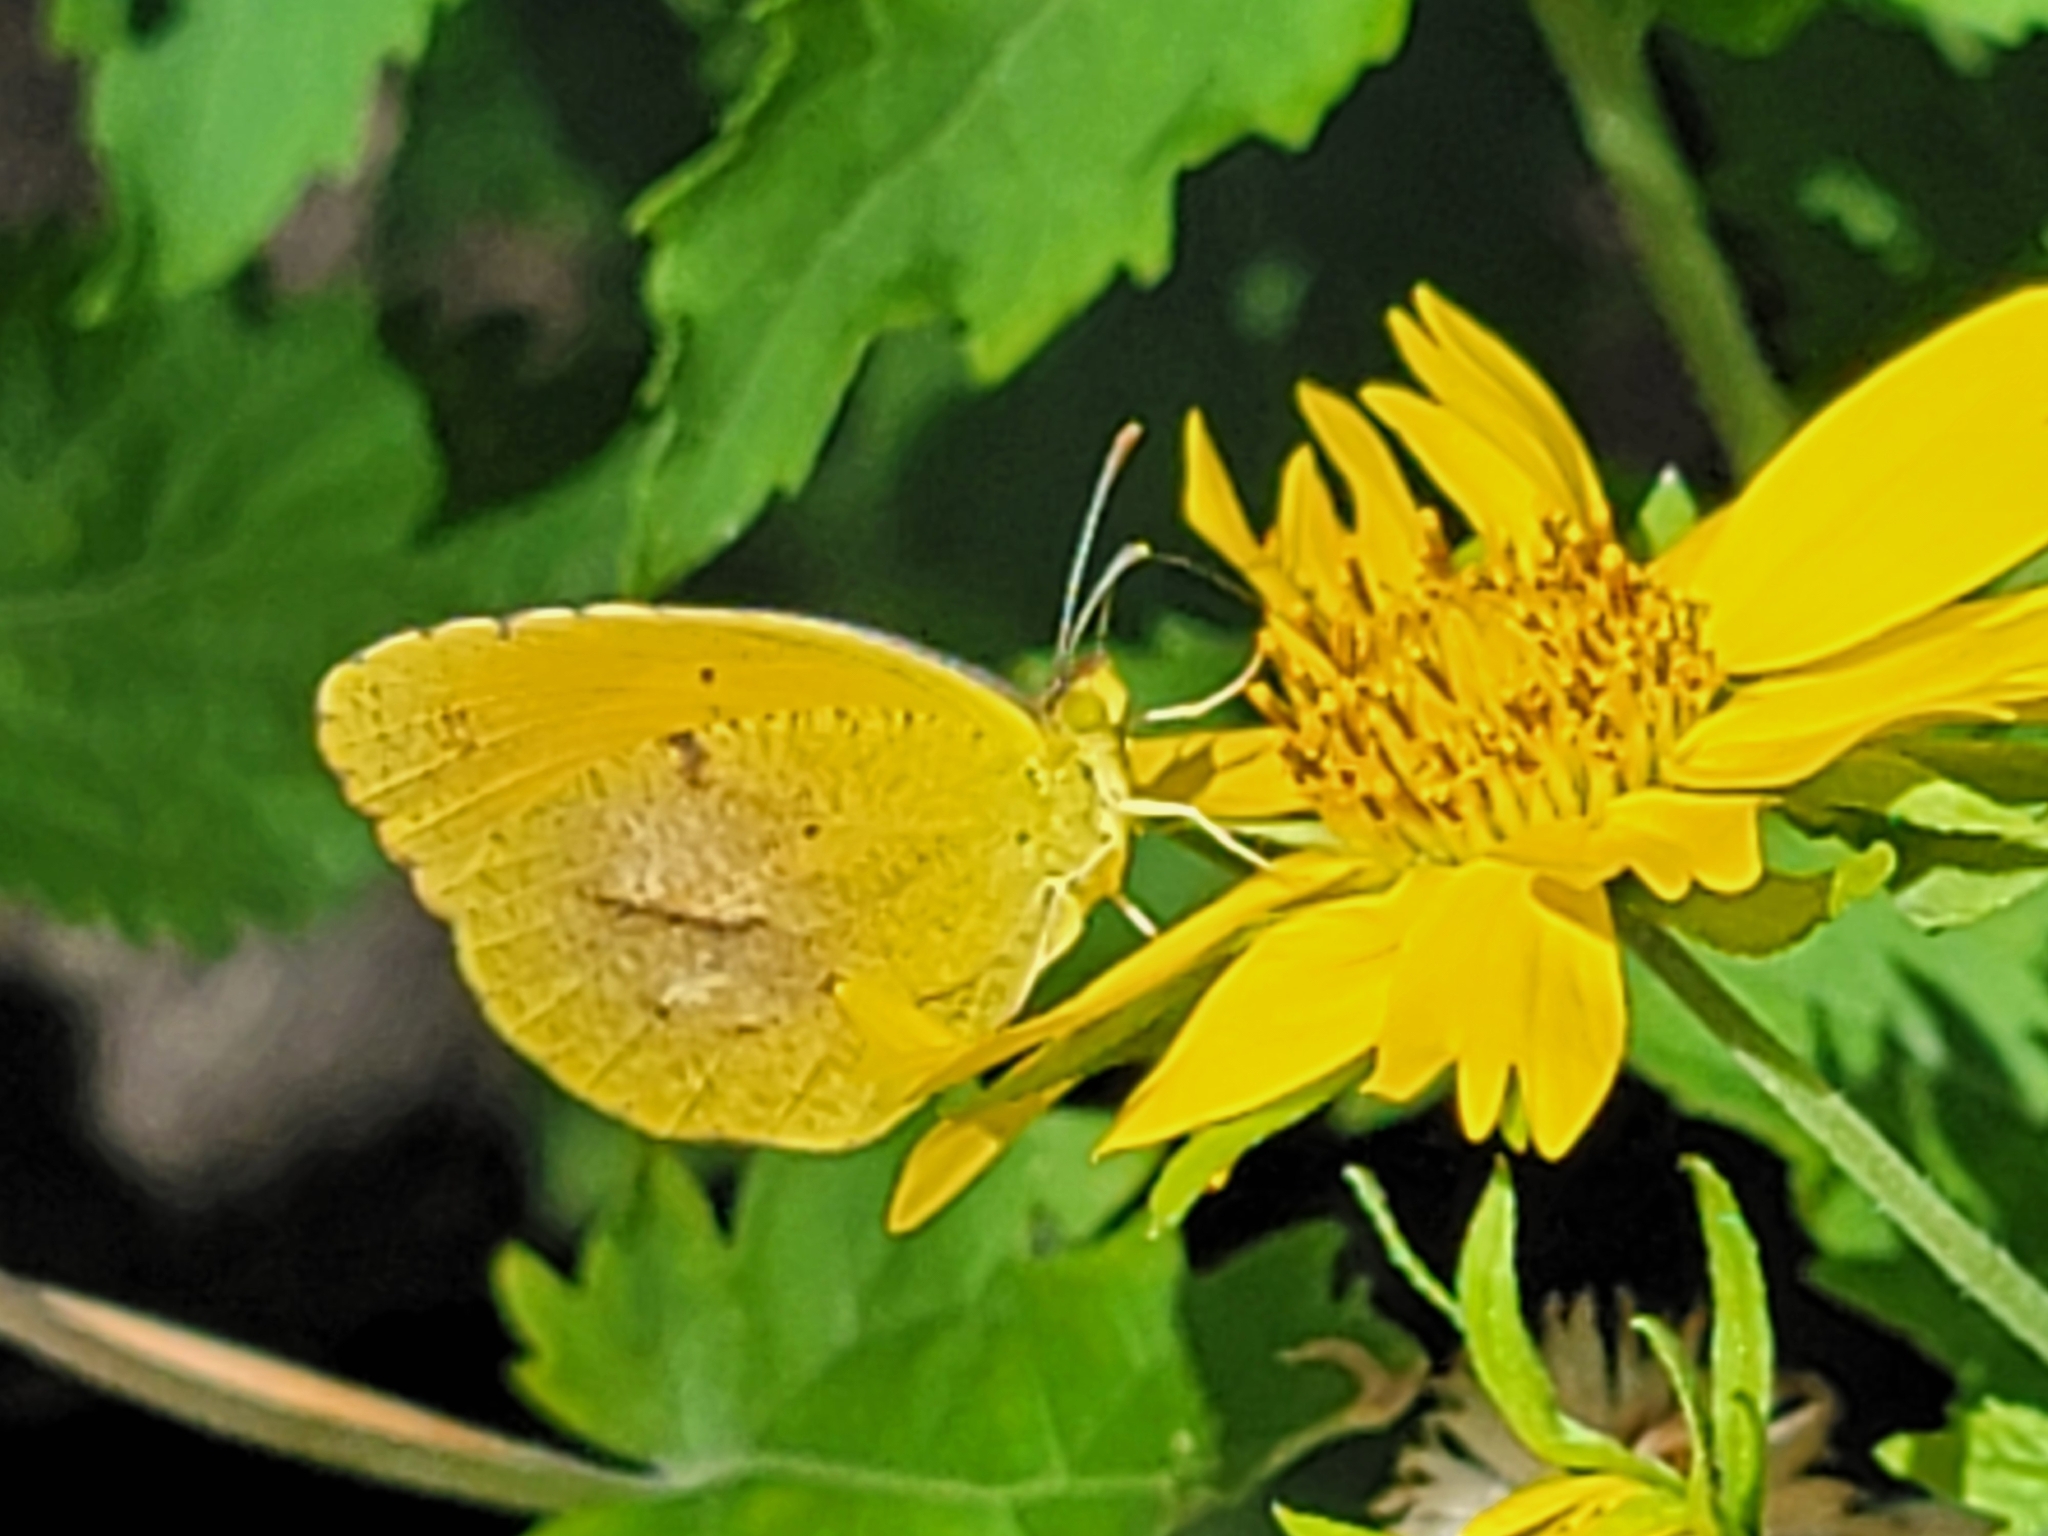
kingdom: Animalia
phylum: Arthropoda
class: Insecta
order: Lepidoptera
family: Pieridae
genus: Abaeis
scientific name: Abaeis nicippe
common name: Sleepy orange
